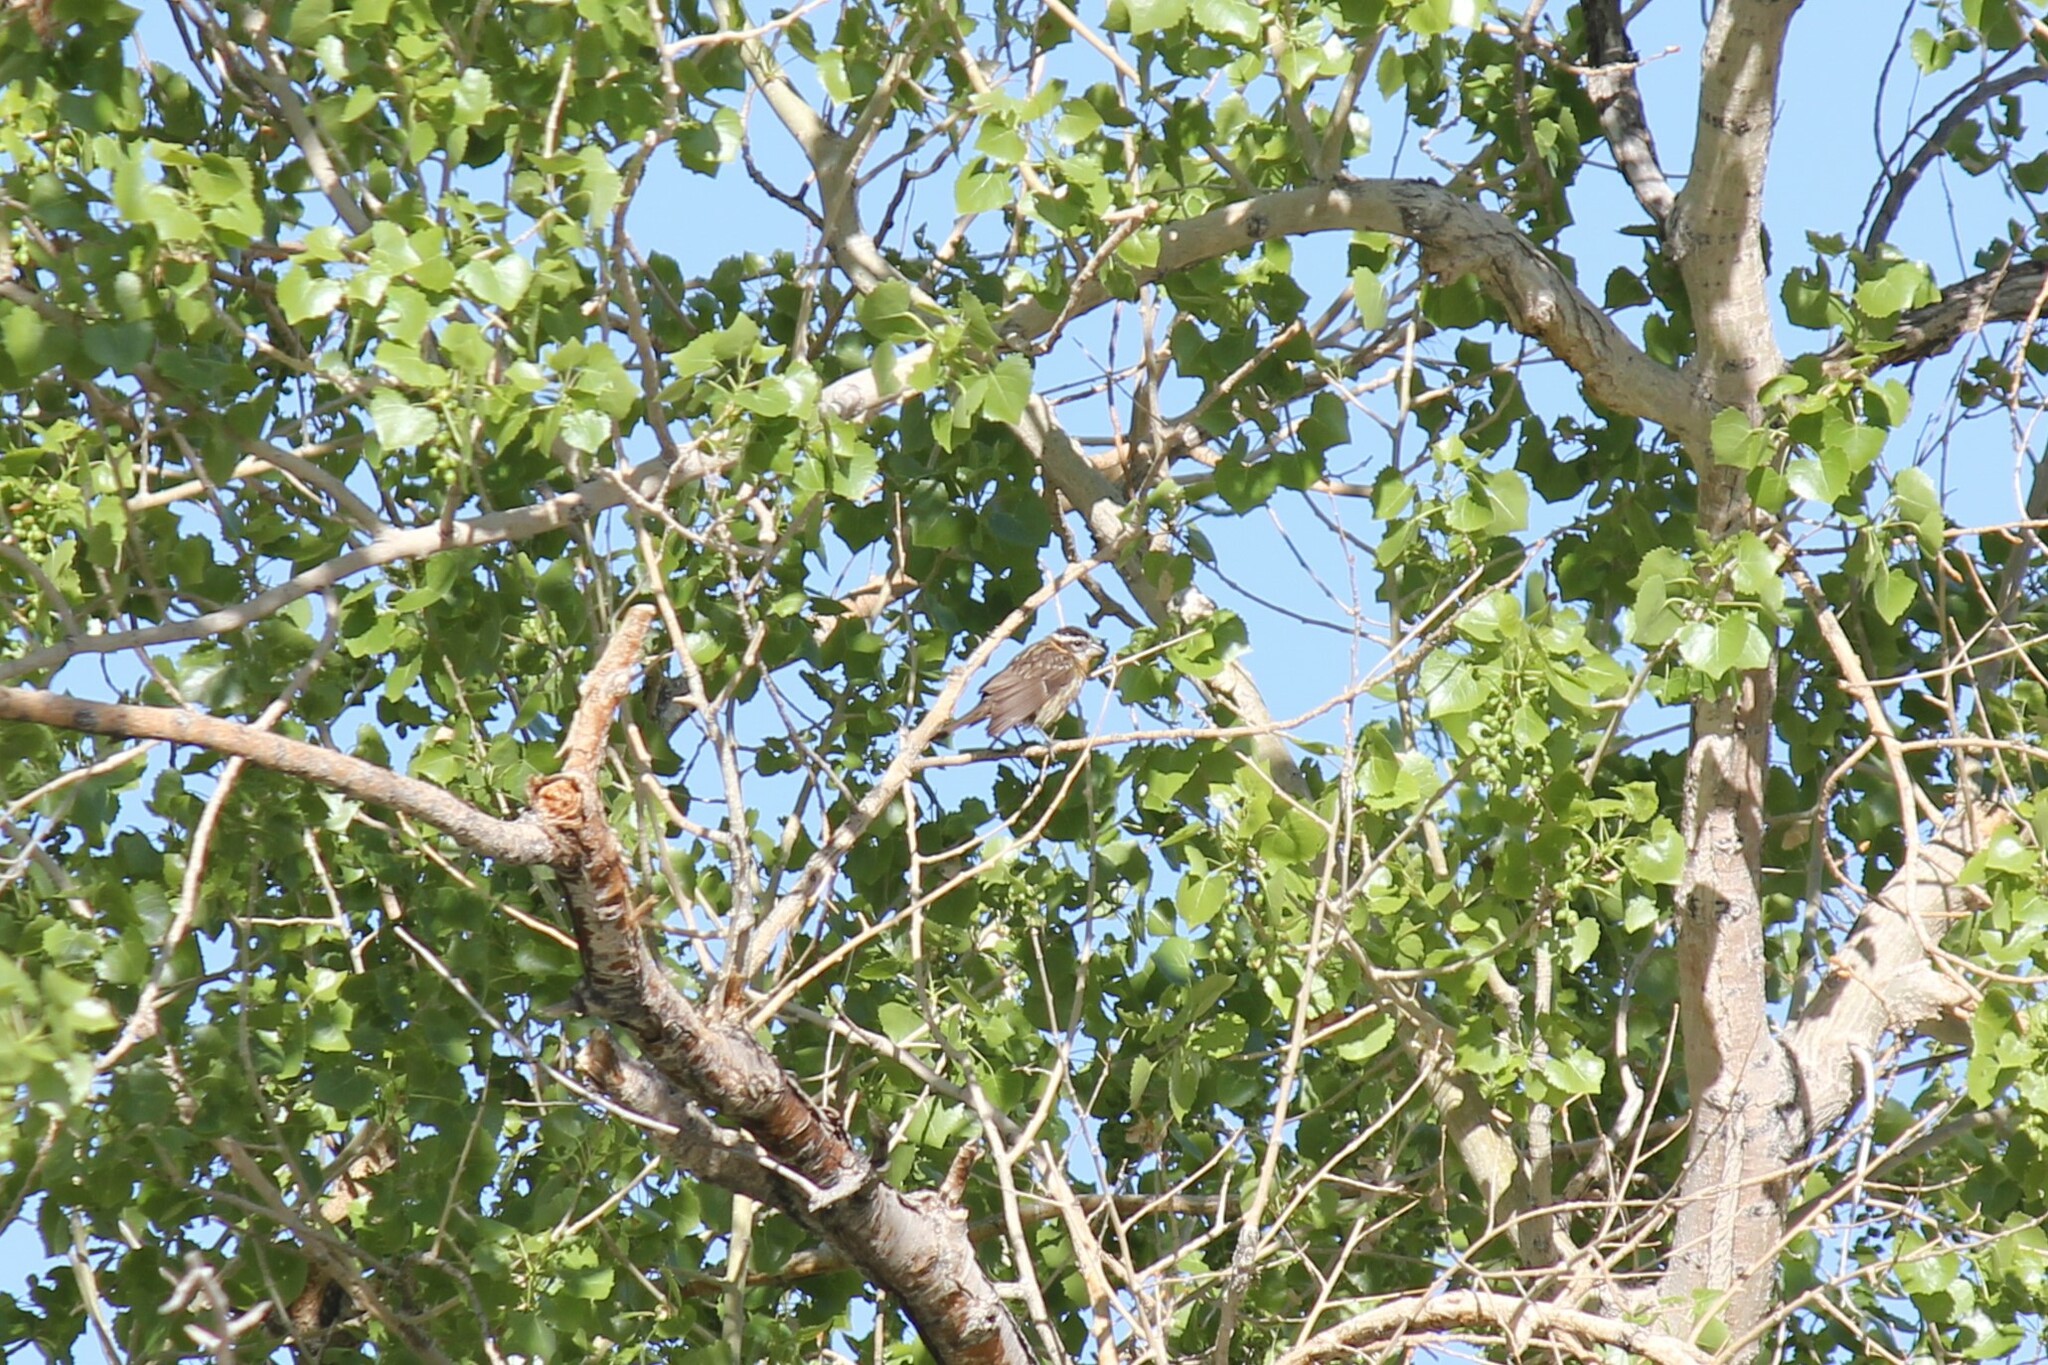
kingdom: Animalia
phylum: Chordata
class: Aves
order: Passeriformes
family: Cardinalidae
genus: Pheucticus
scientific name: Pheucticus melanocephalus
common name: Black-headed grosbeak
